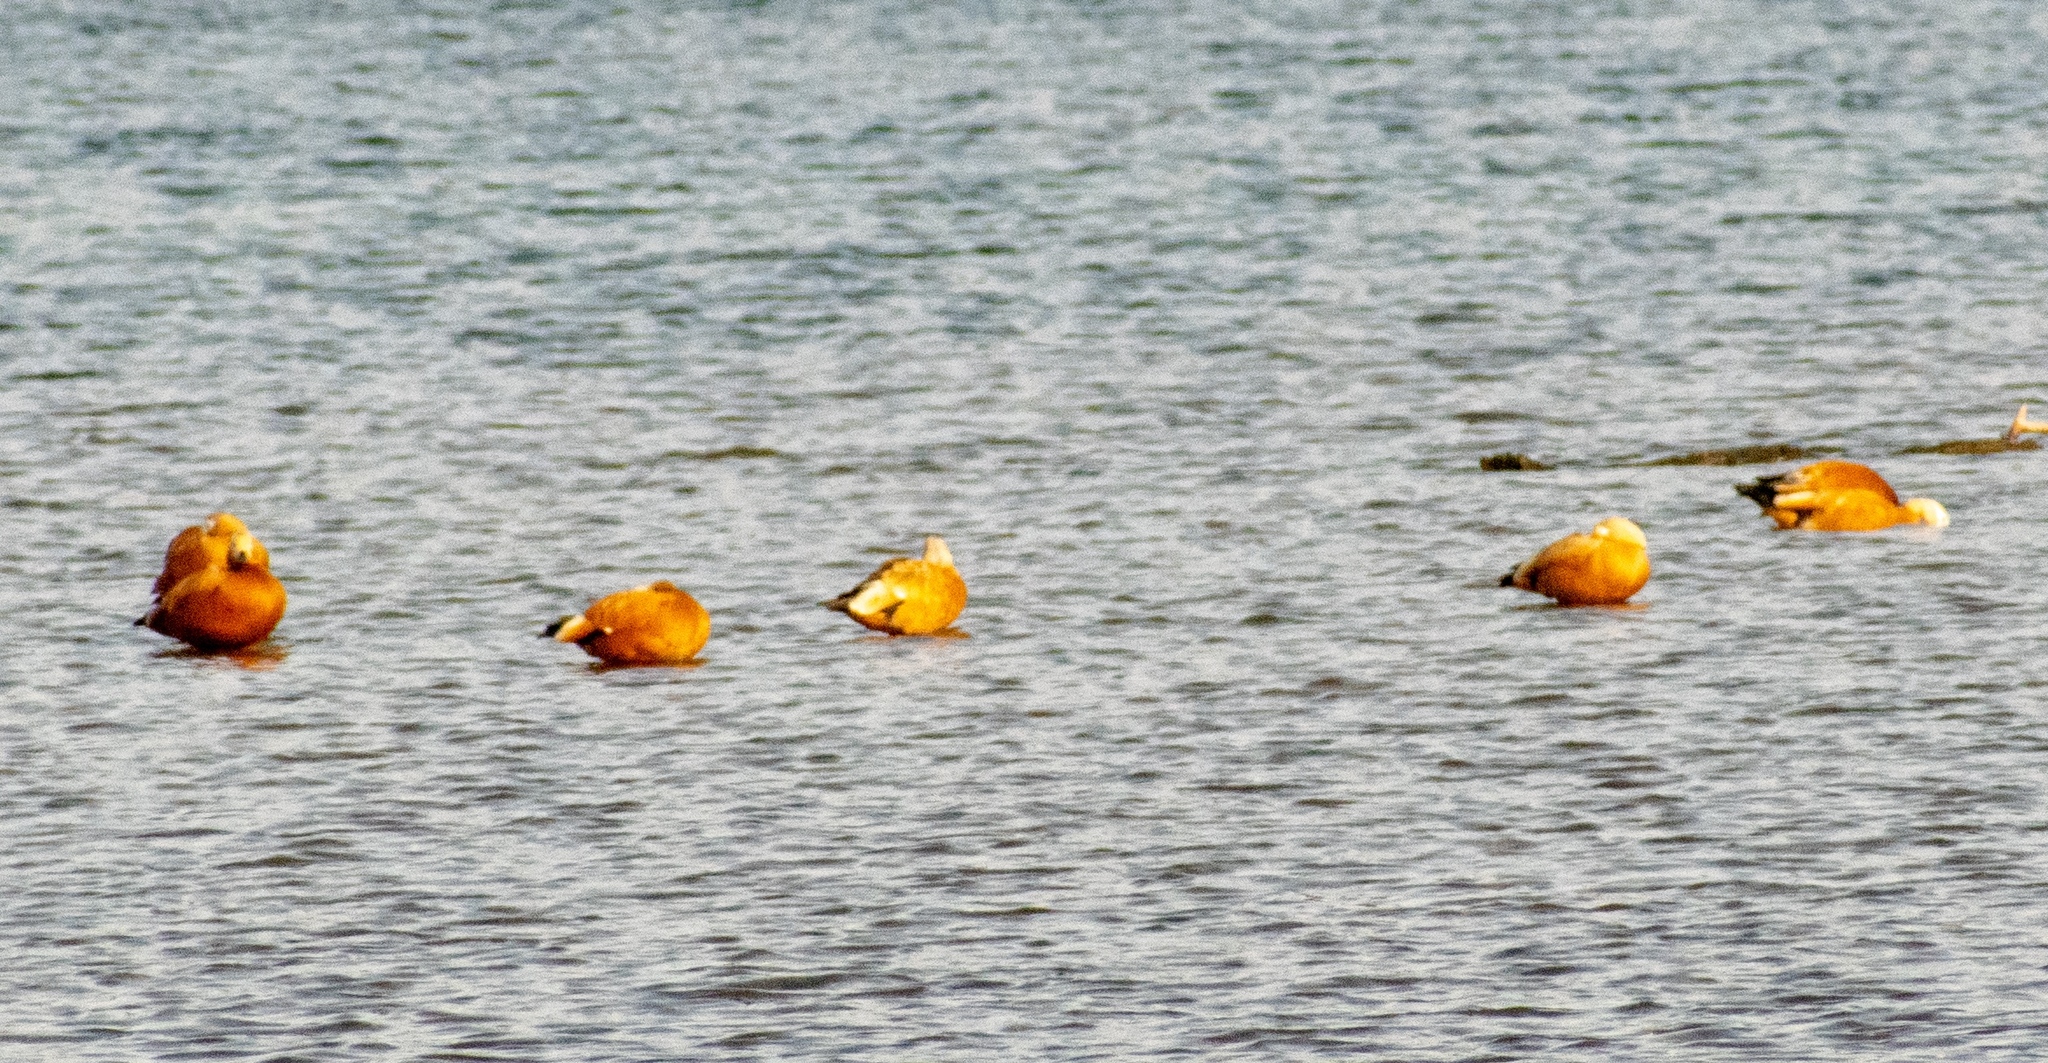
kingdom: Animalia
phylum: Chordata
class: Aves
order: Anseriformes
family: Anatidae
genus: Tadorna
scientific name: Tadorna ferruginea
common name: Ruddy shelduck
